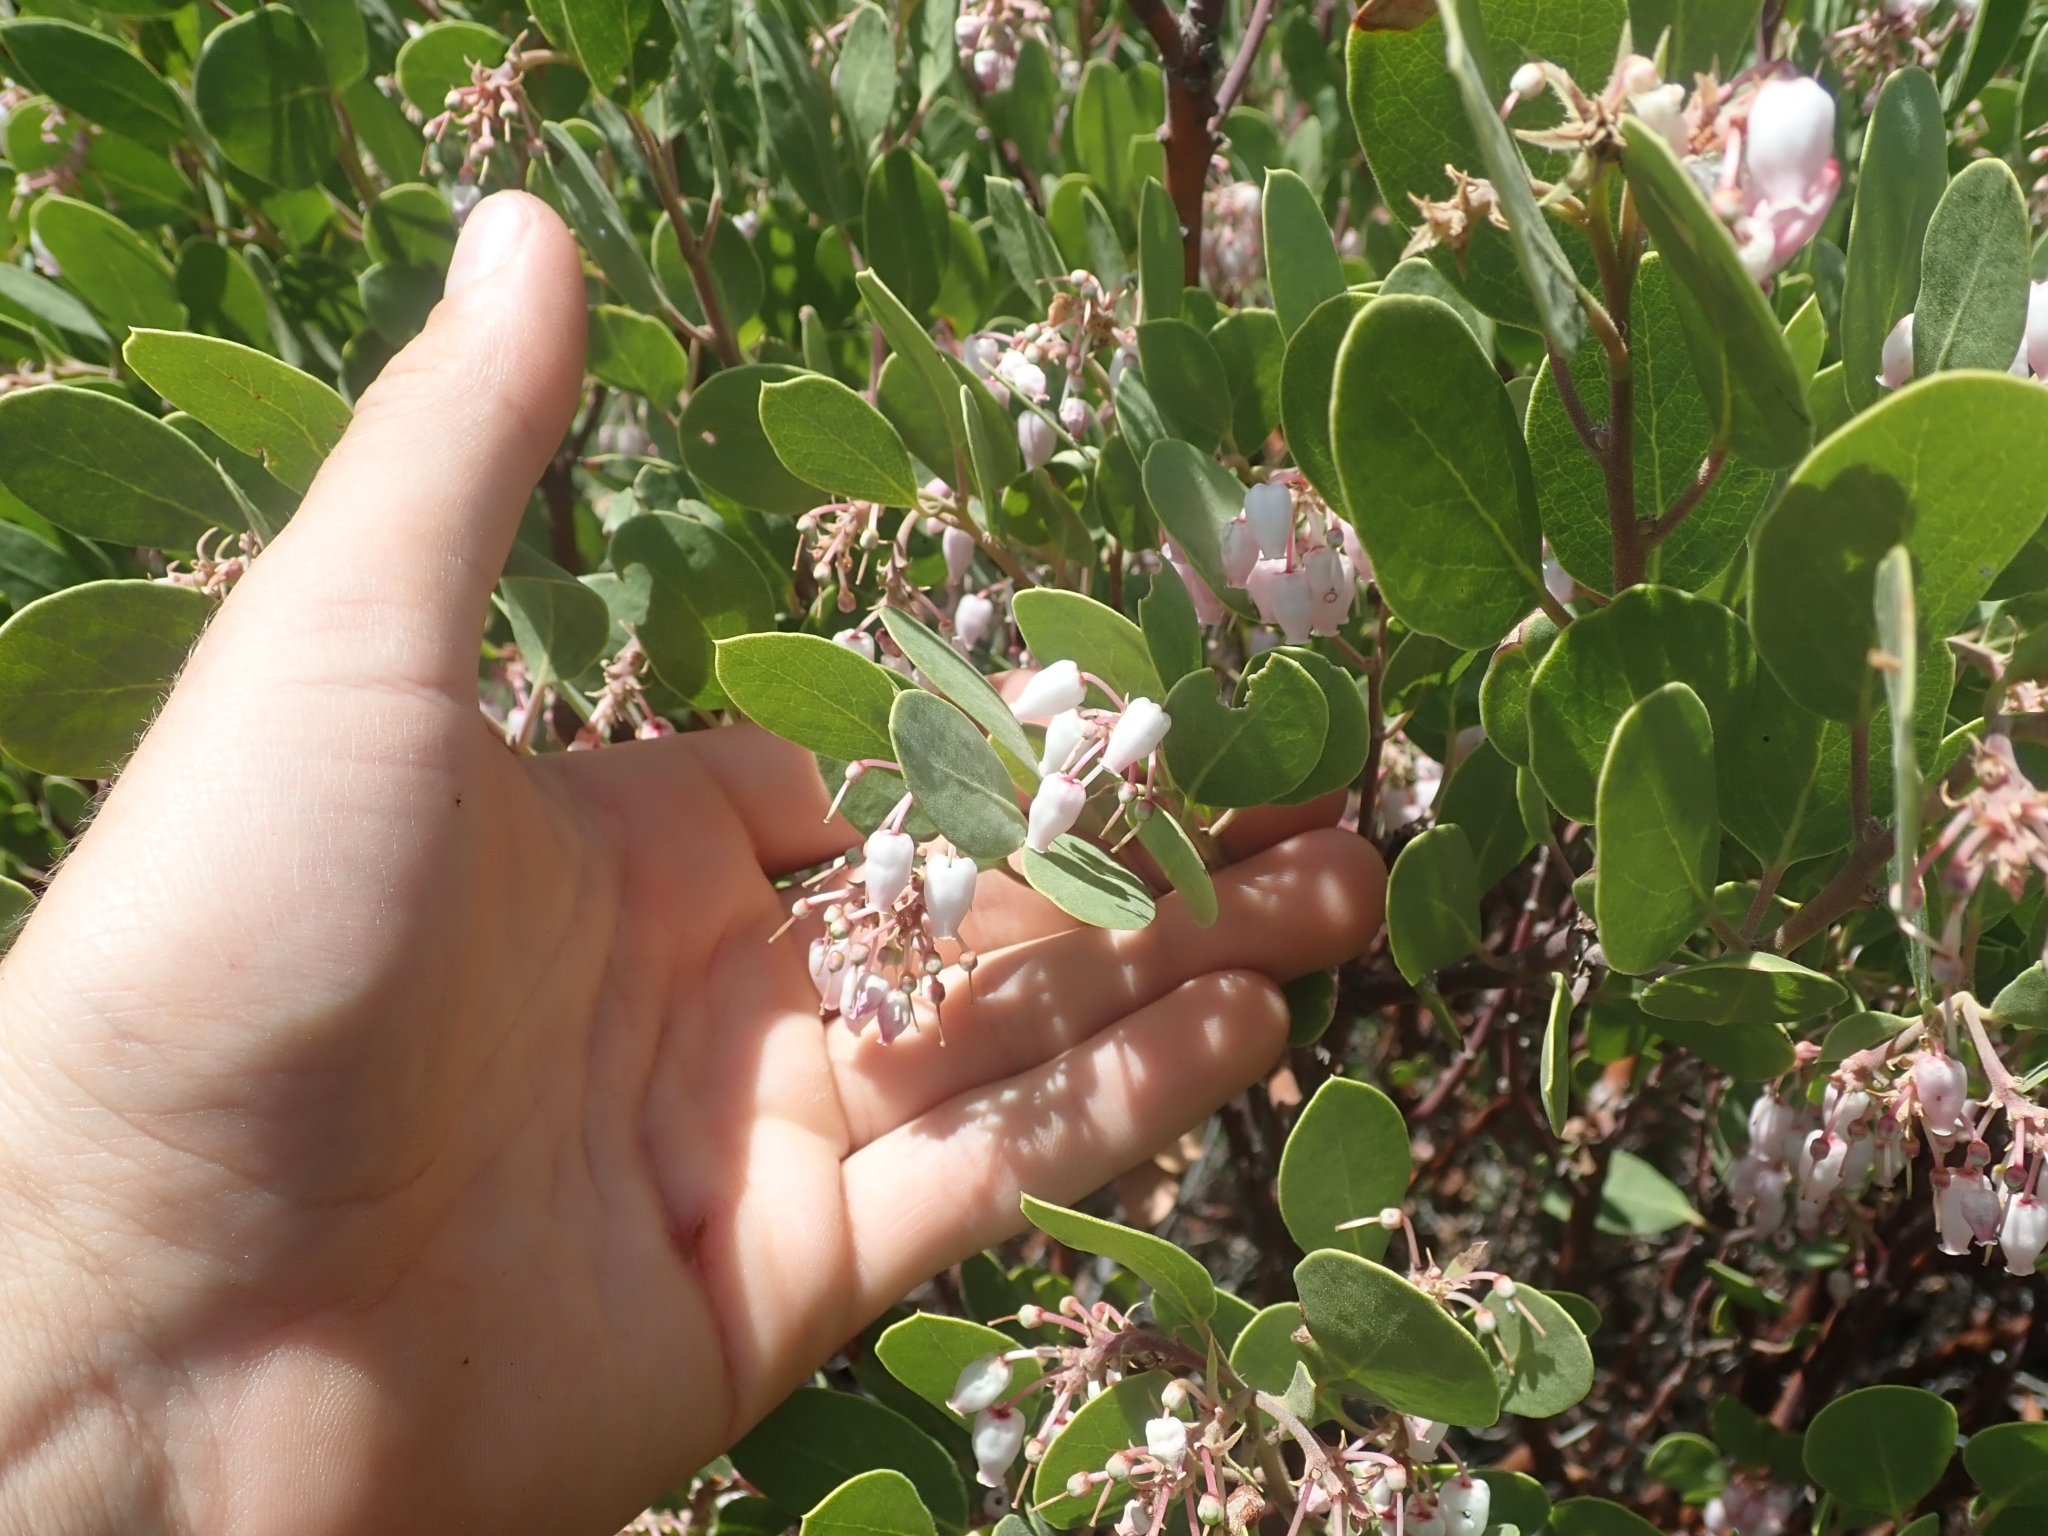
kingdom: Plantae
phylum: Tracheophyta
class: Magnoliopsida
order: Ericales
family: Ericaceae
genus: Arctostaphylos
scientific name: Arctostaphylos pungens
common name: Mexican manzanita
